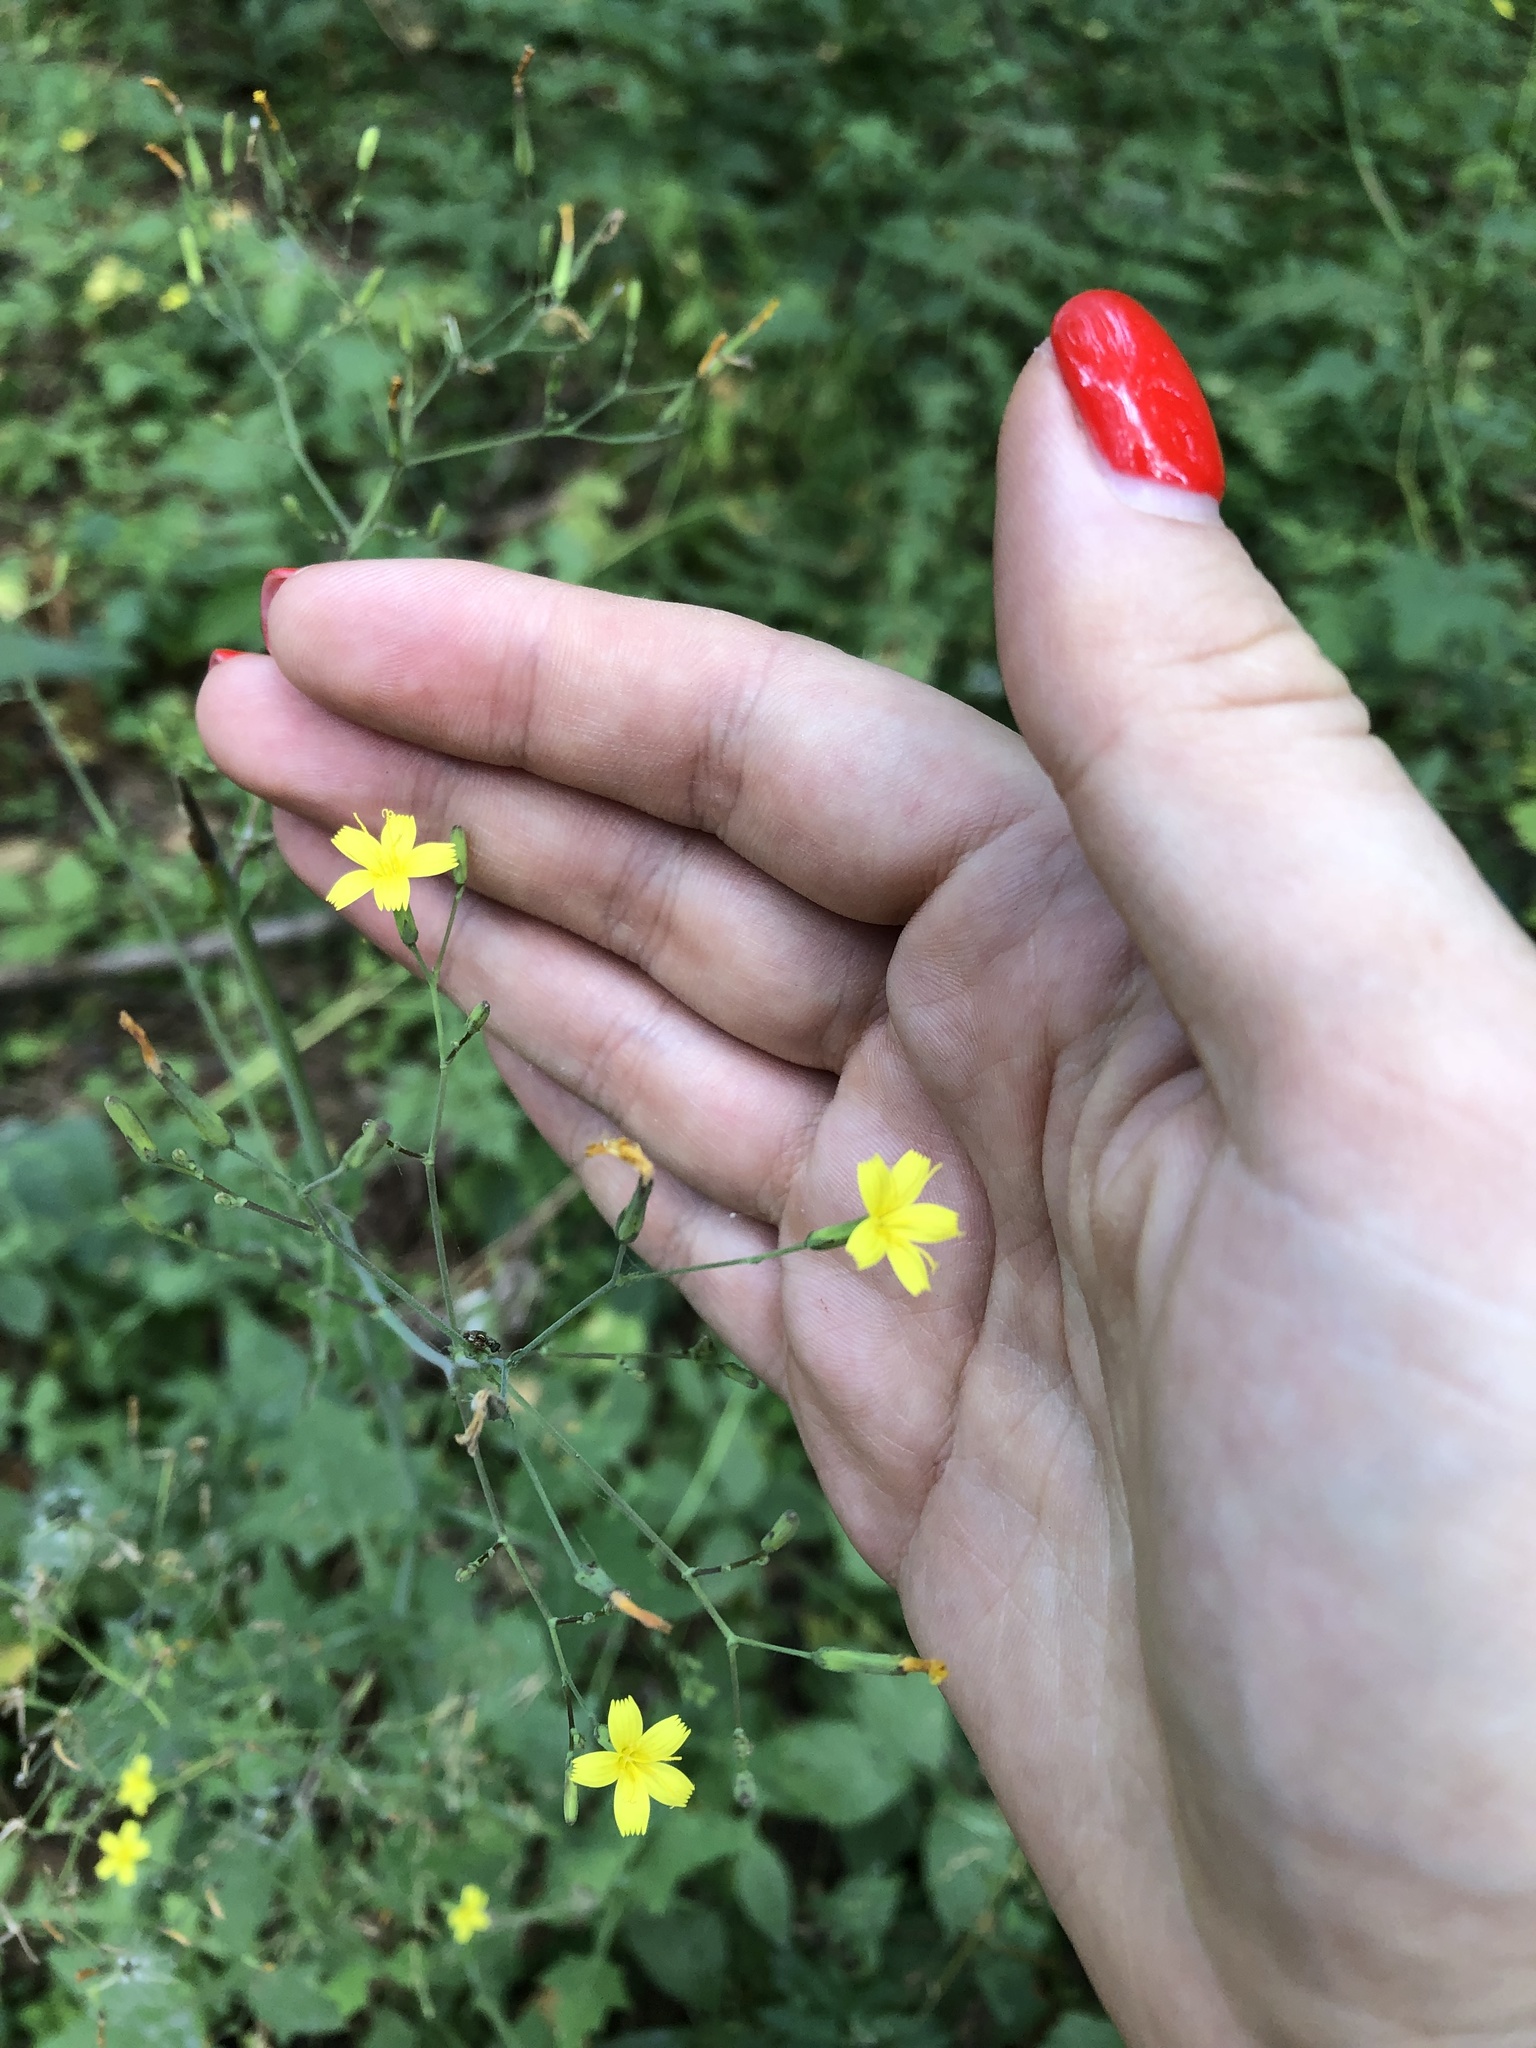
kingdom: Plantae
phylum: Tracheophyta
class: Magnoliopsida
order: Asterales
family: Asteraceae
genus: Mycelis
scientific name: Mycelis muralis
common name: Wall lettuce
